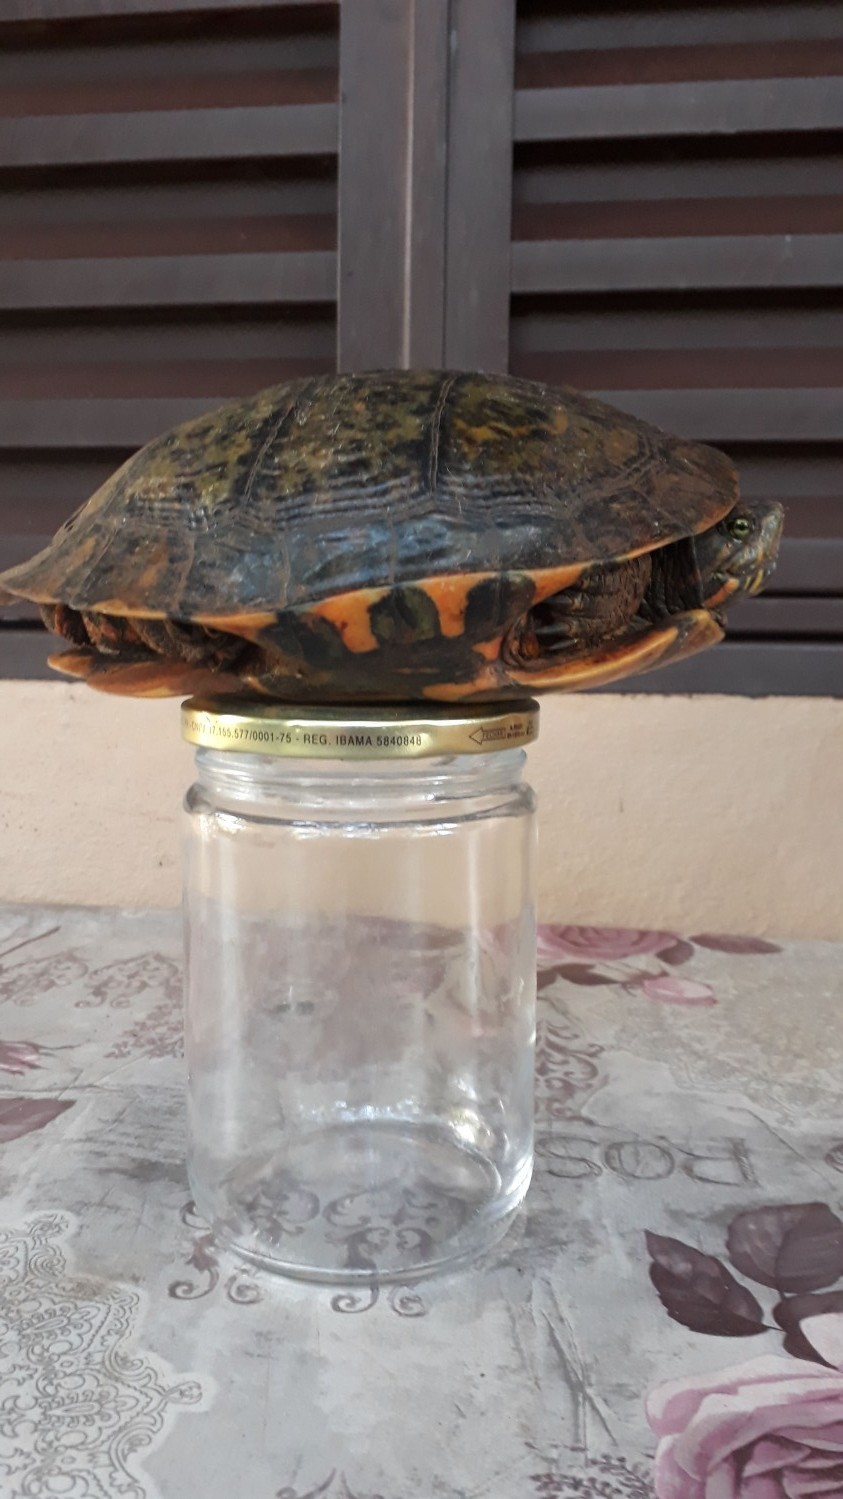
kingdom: Animalia
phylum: Chordata
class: Testudines
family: Emydidae
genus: Trachemys
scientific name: Trachemys dorbigni
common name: Black-bellied slider
